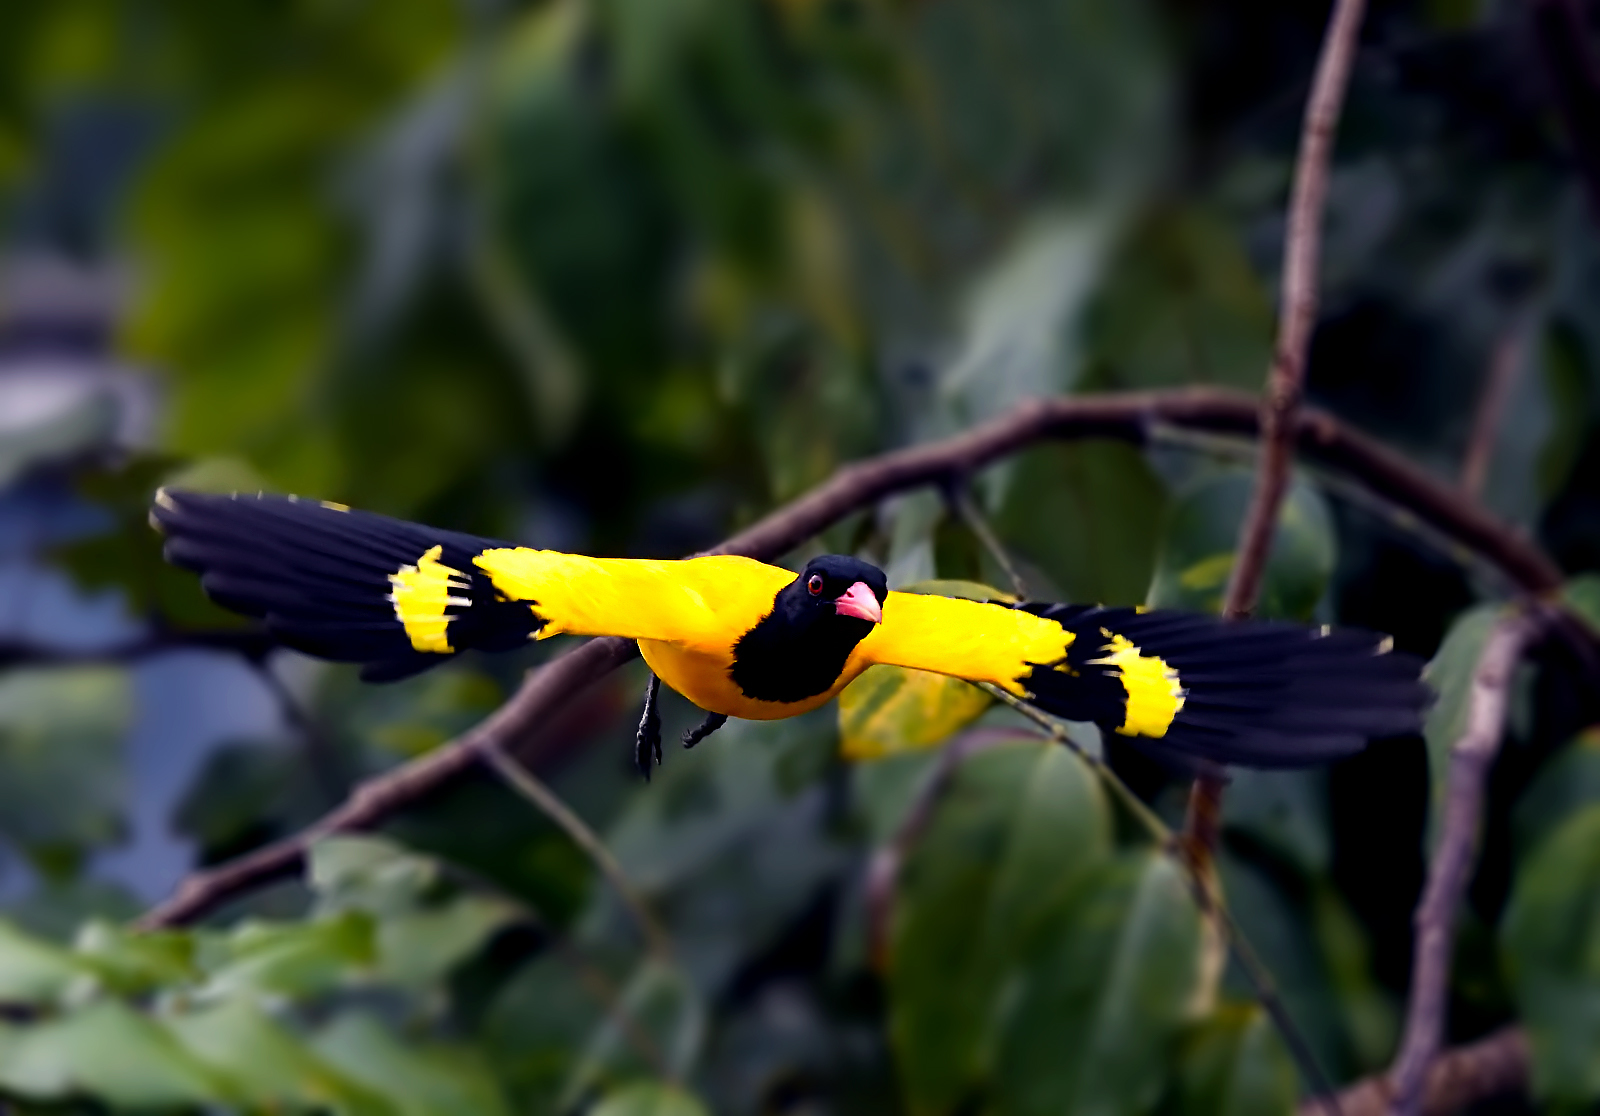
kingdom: Animalia
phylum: Chordata
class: Aves
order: Passeriformes
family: Oriolidae
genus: Oriolus
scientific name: Oriolus xanthornus
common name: Black-hooded oriole
